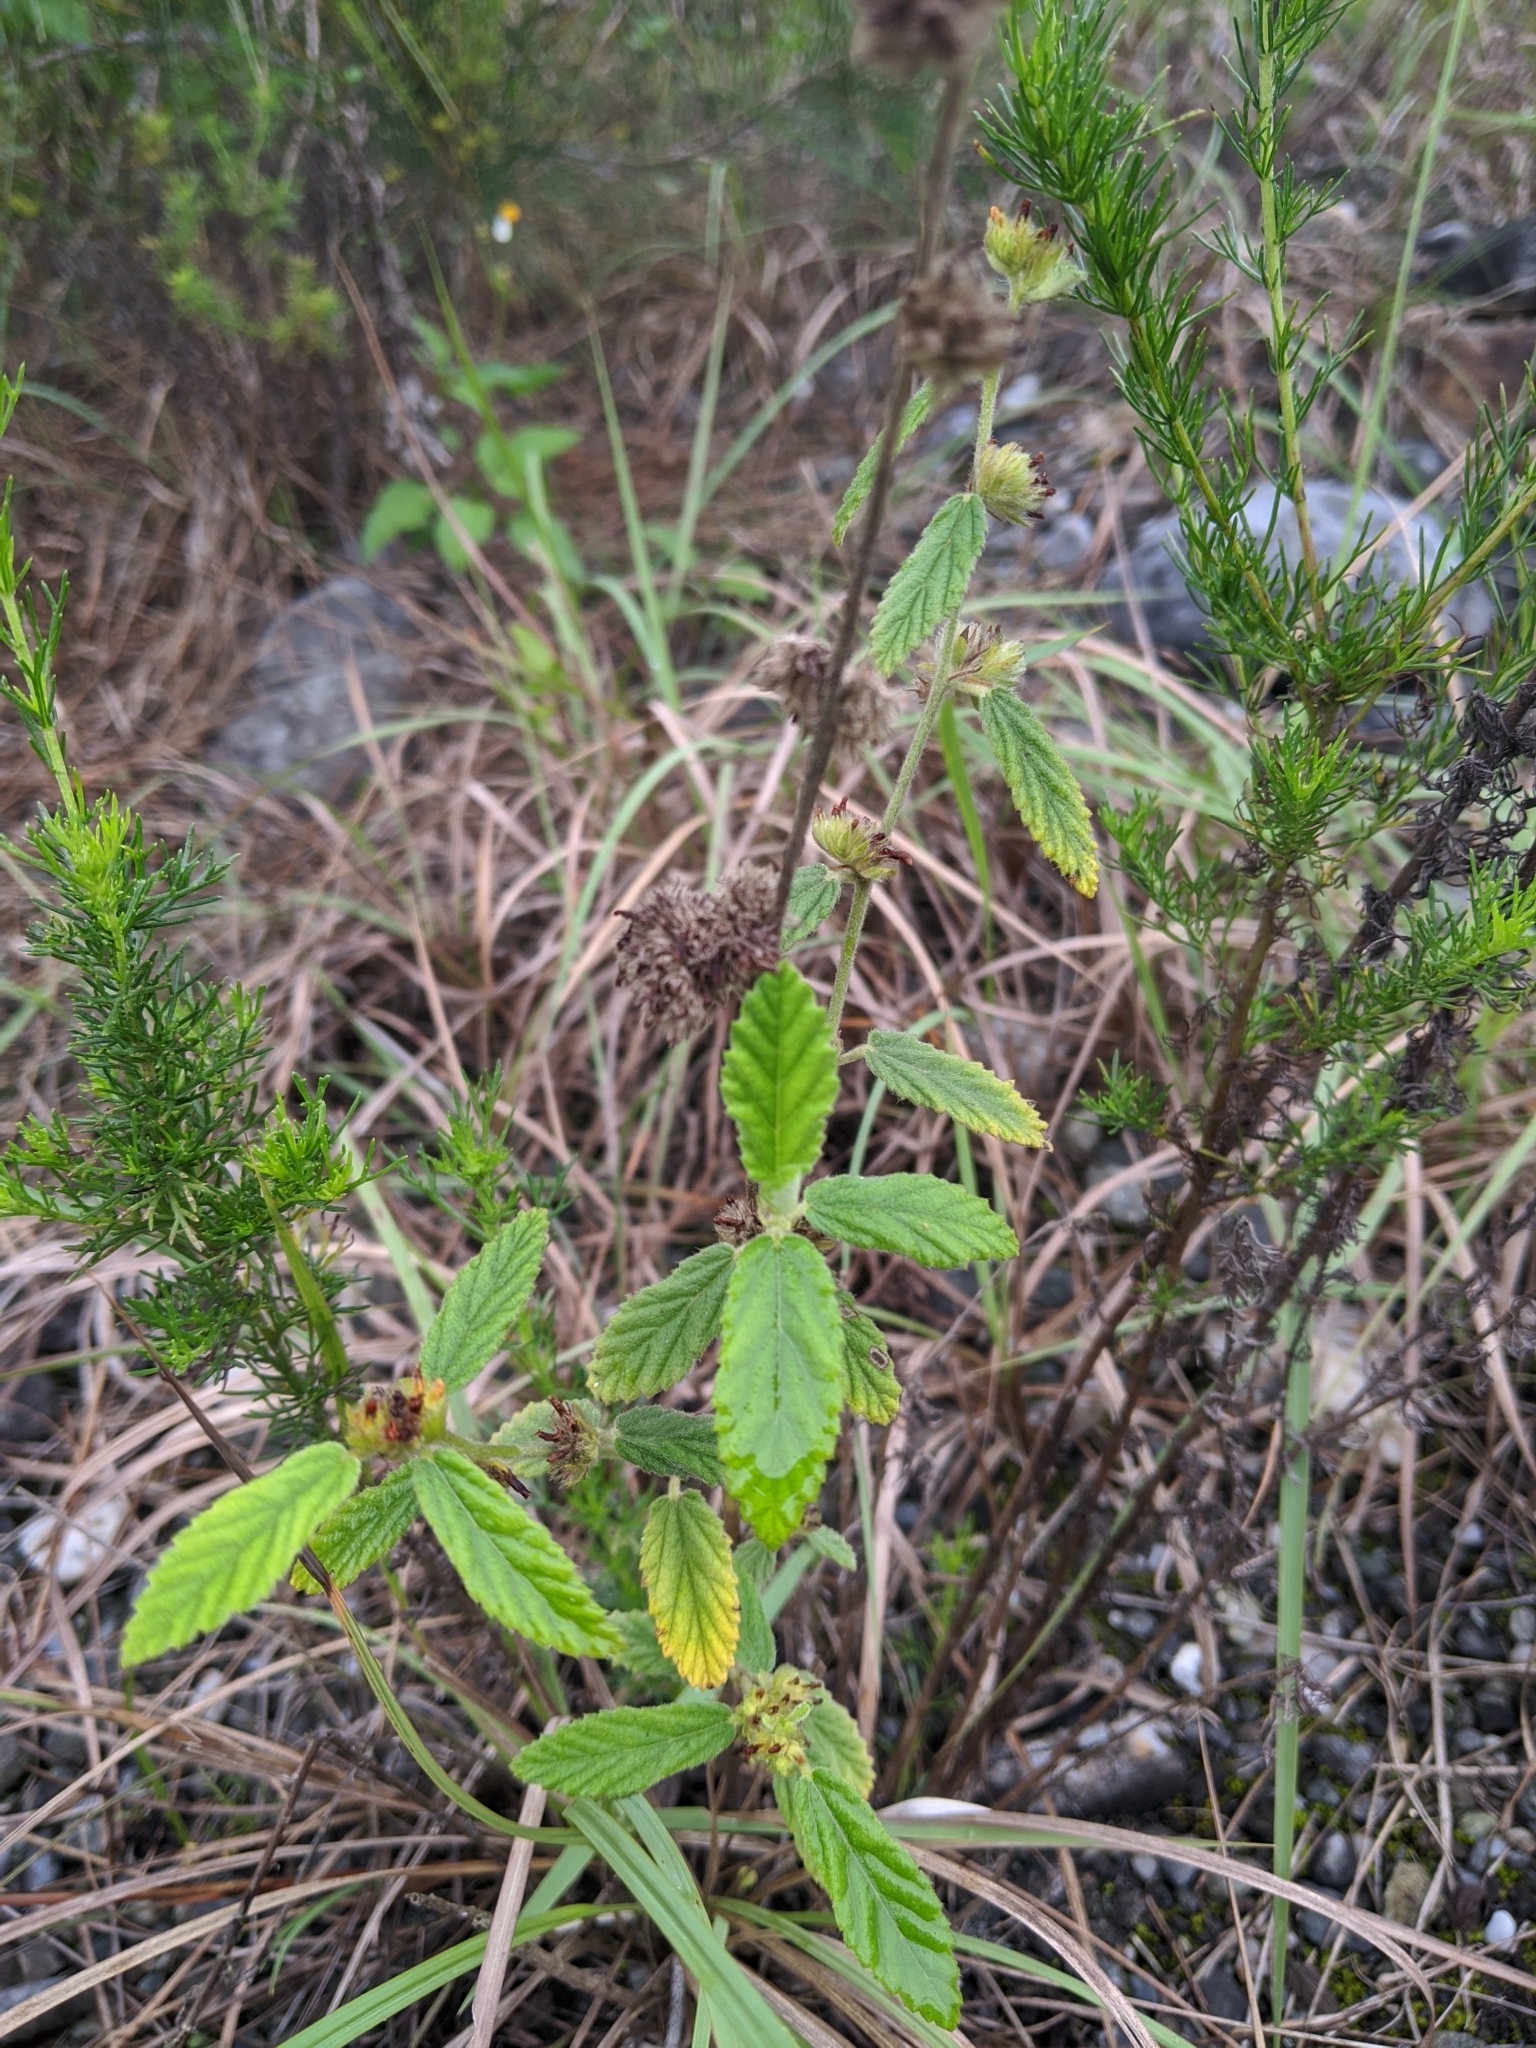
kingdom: Plantae
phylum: Tracheophyta
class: Magnoliopsida
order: Malvales
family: Malvaceae
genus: Waltheria
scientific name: Waltheria indica
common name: Leather-coat
